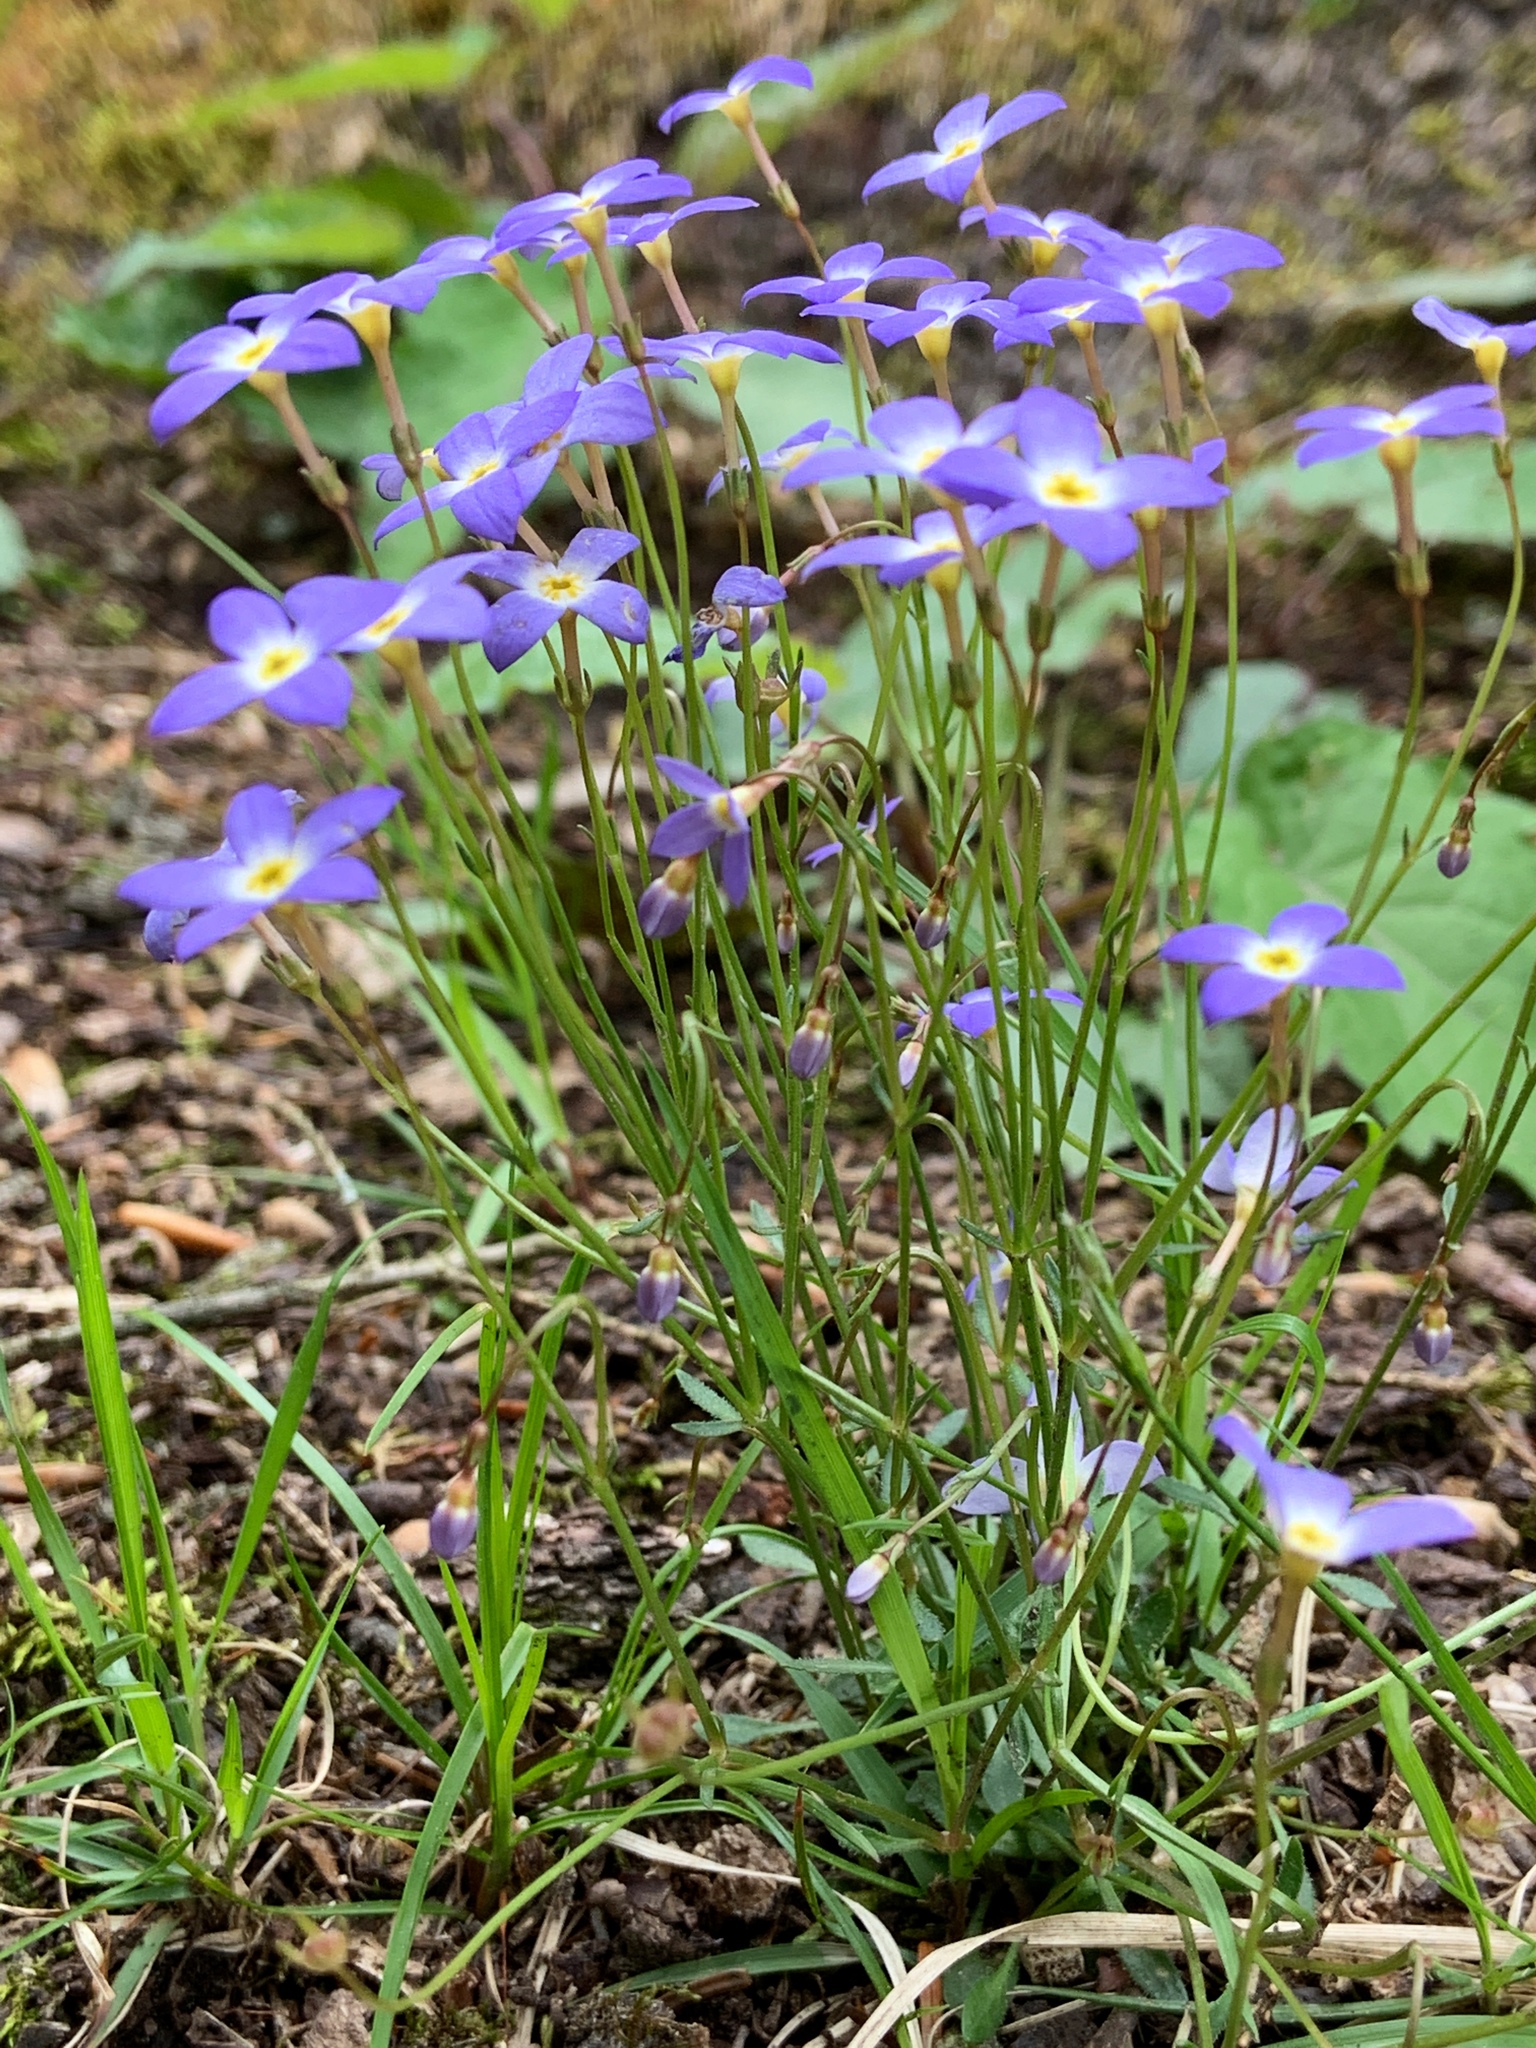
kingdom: Plantae
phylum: Tracheophyta
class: Magnoliopsida
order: Gentianales
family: Rubiaceae
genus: Houstonia
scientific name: Houstonia caerulea
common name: Bluets
